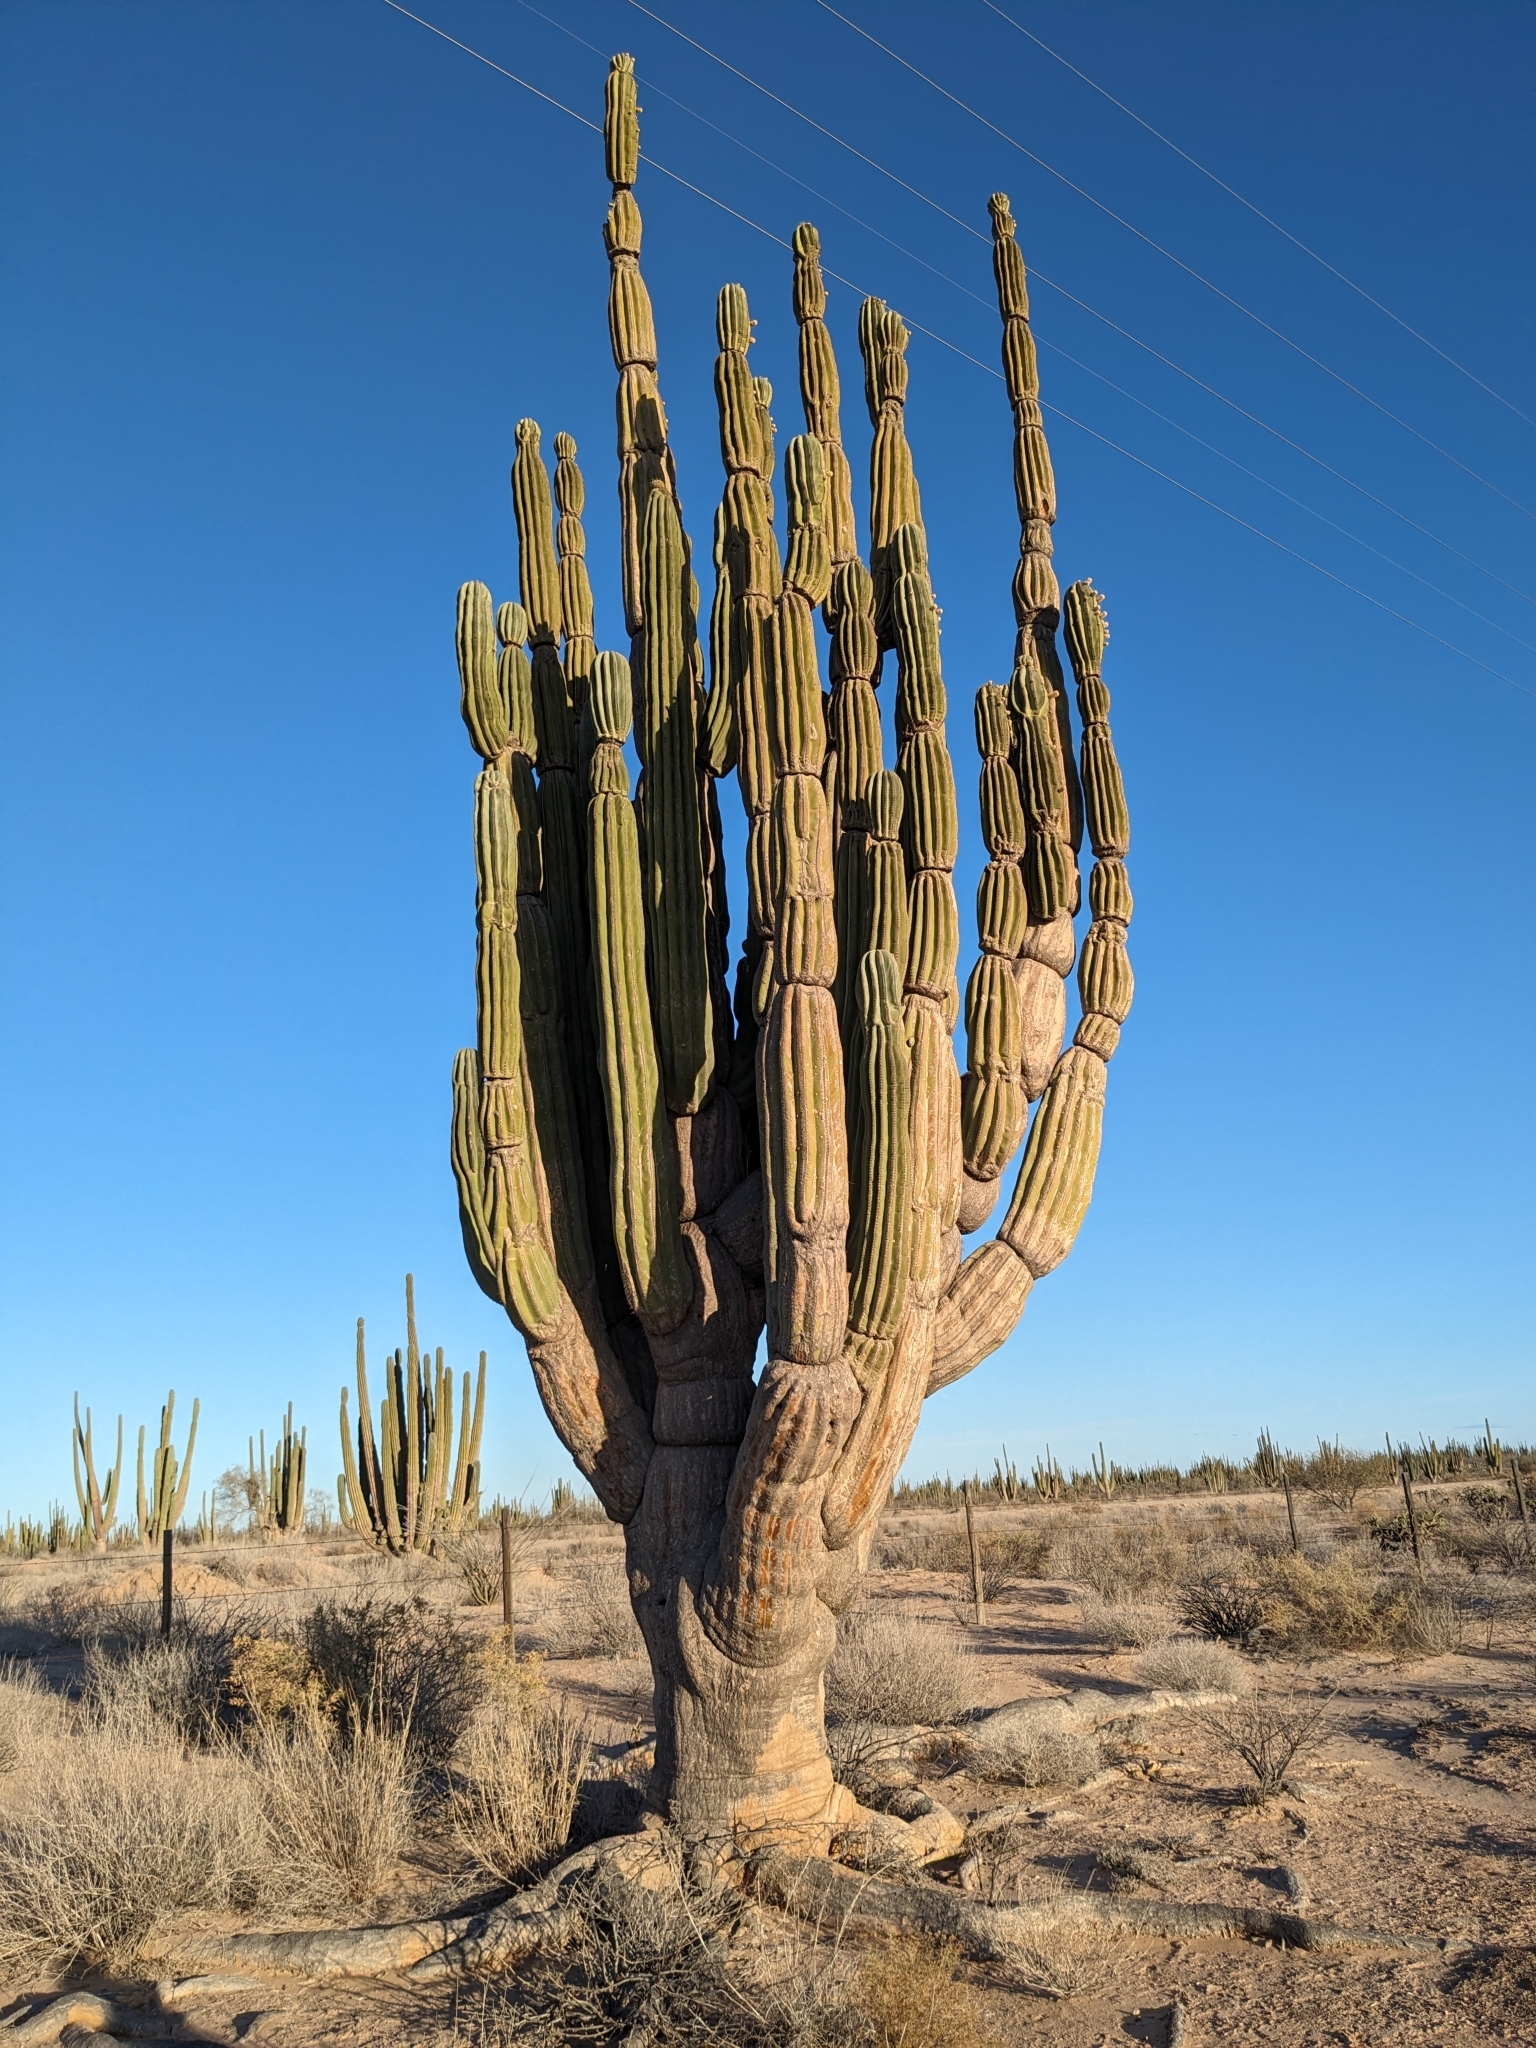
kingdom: Plantae
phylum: Tracheophyta
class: Magnoliopsida
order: Caryophyllales
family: Cactaceae
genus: Pachycereus
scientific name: Pachycereus pringlei
